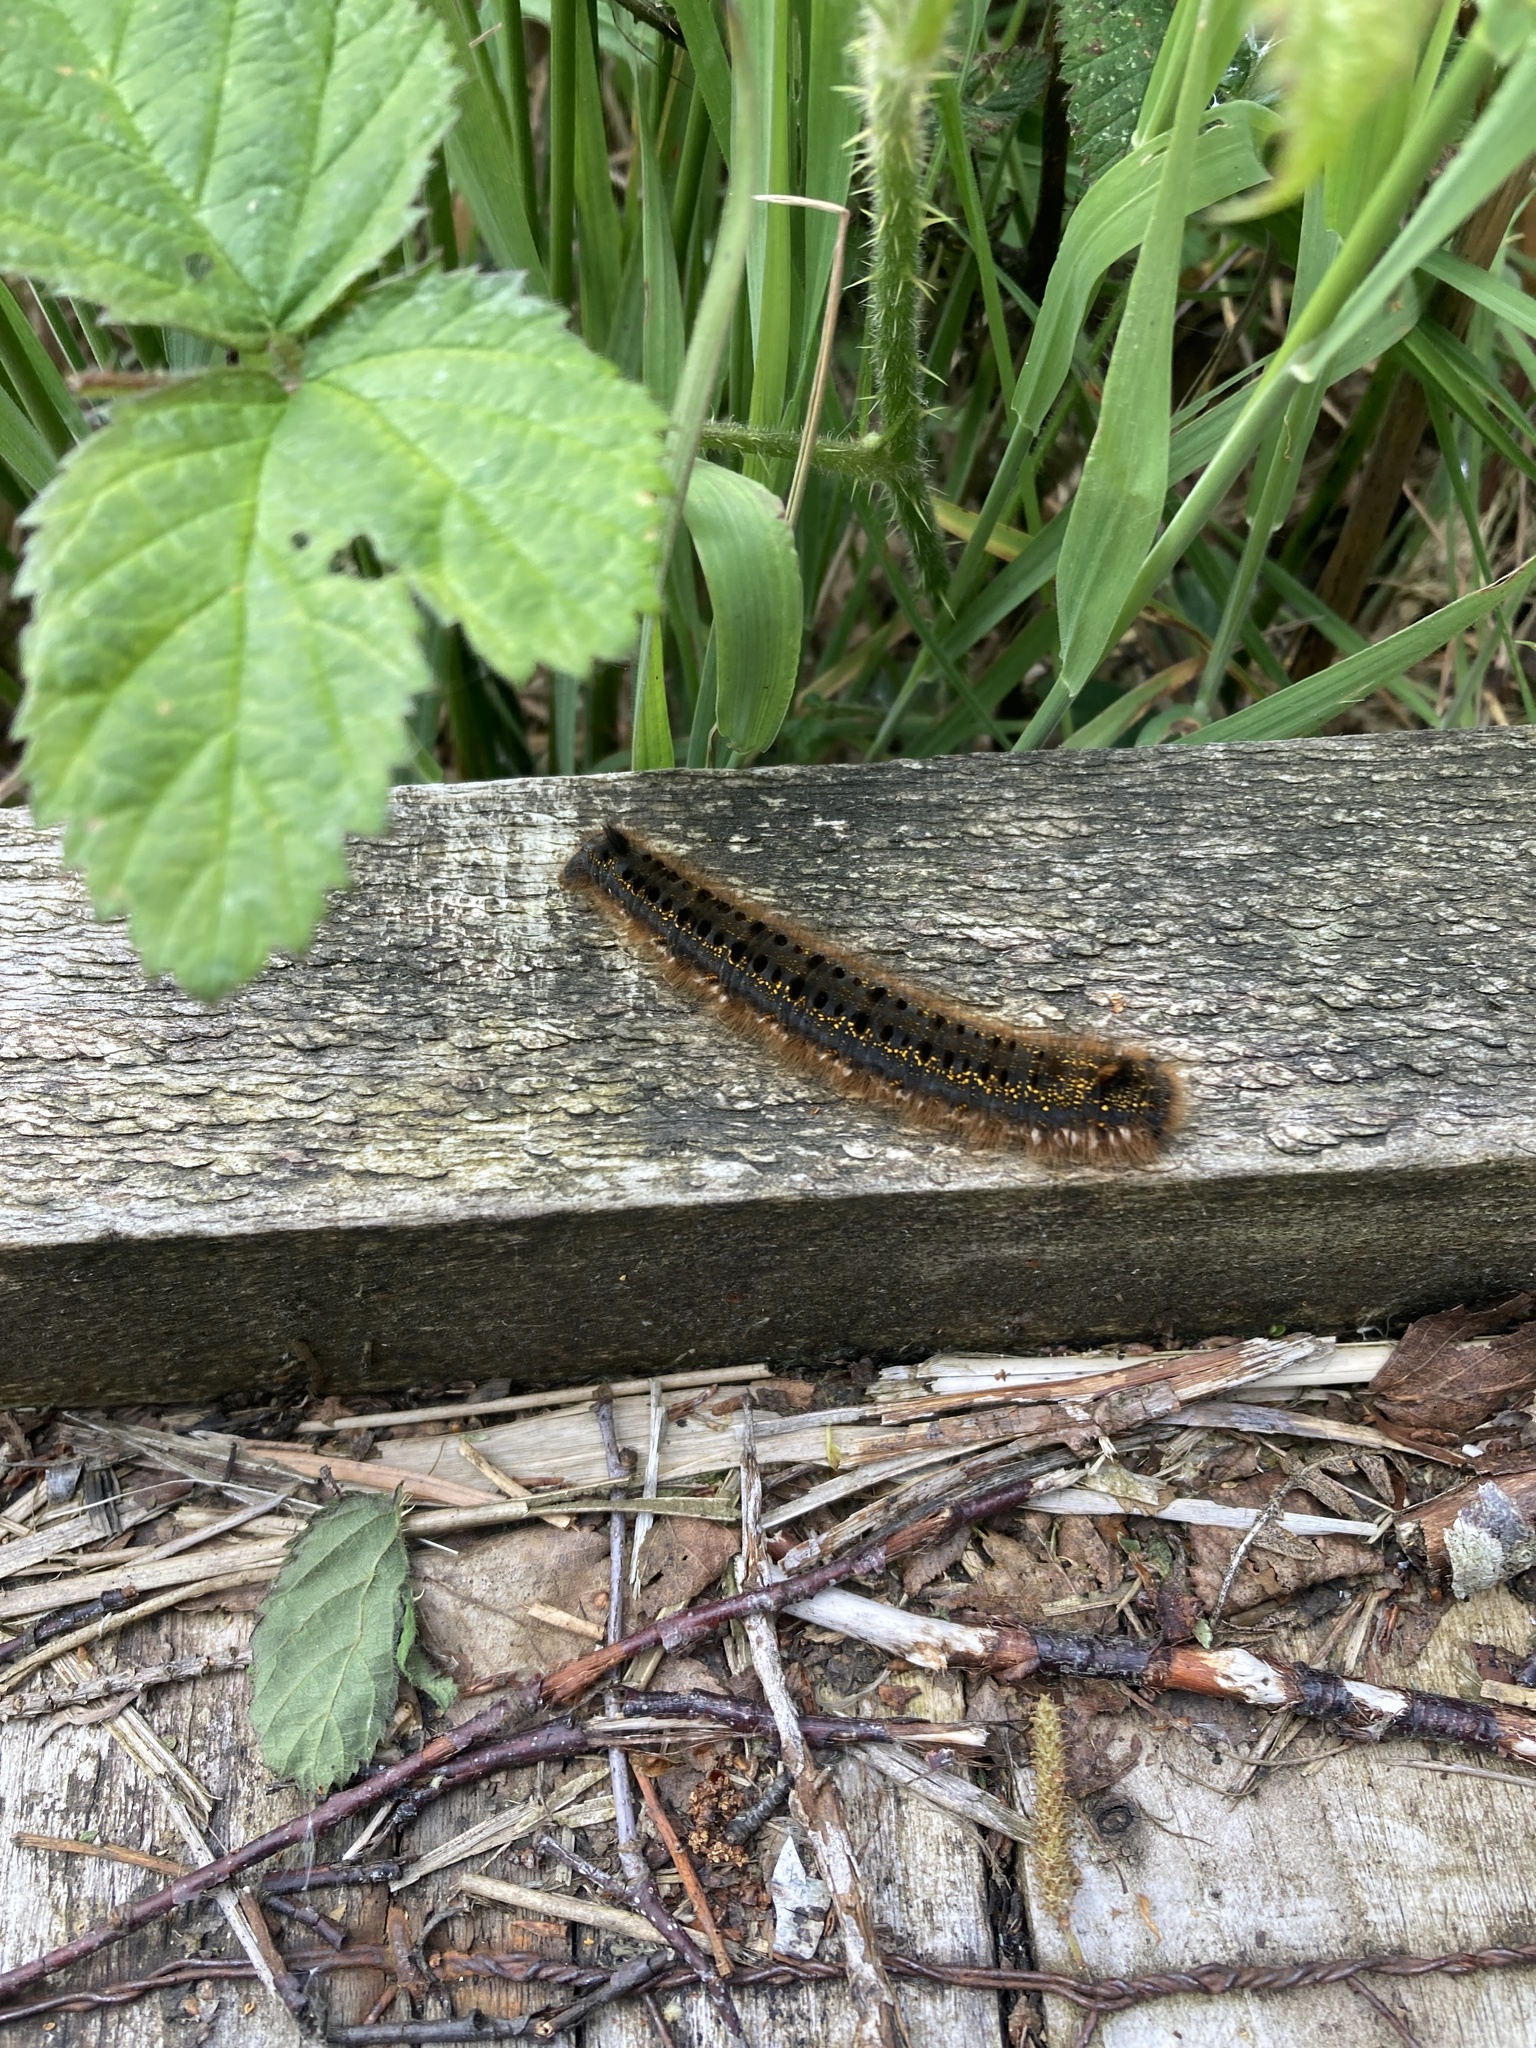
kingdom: Animalia
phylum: Arthropoda
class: Insecta
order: Lepidoptera
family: Lasiocampidae
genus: Euthrix
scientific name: Euthrix potatoria
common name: Drinker
